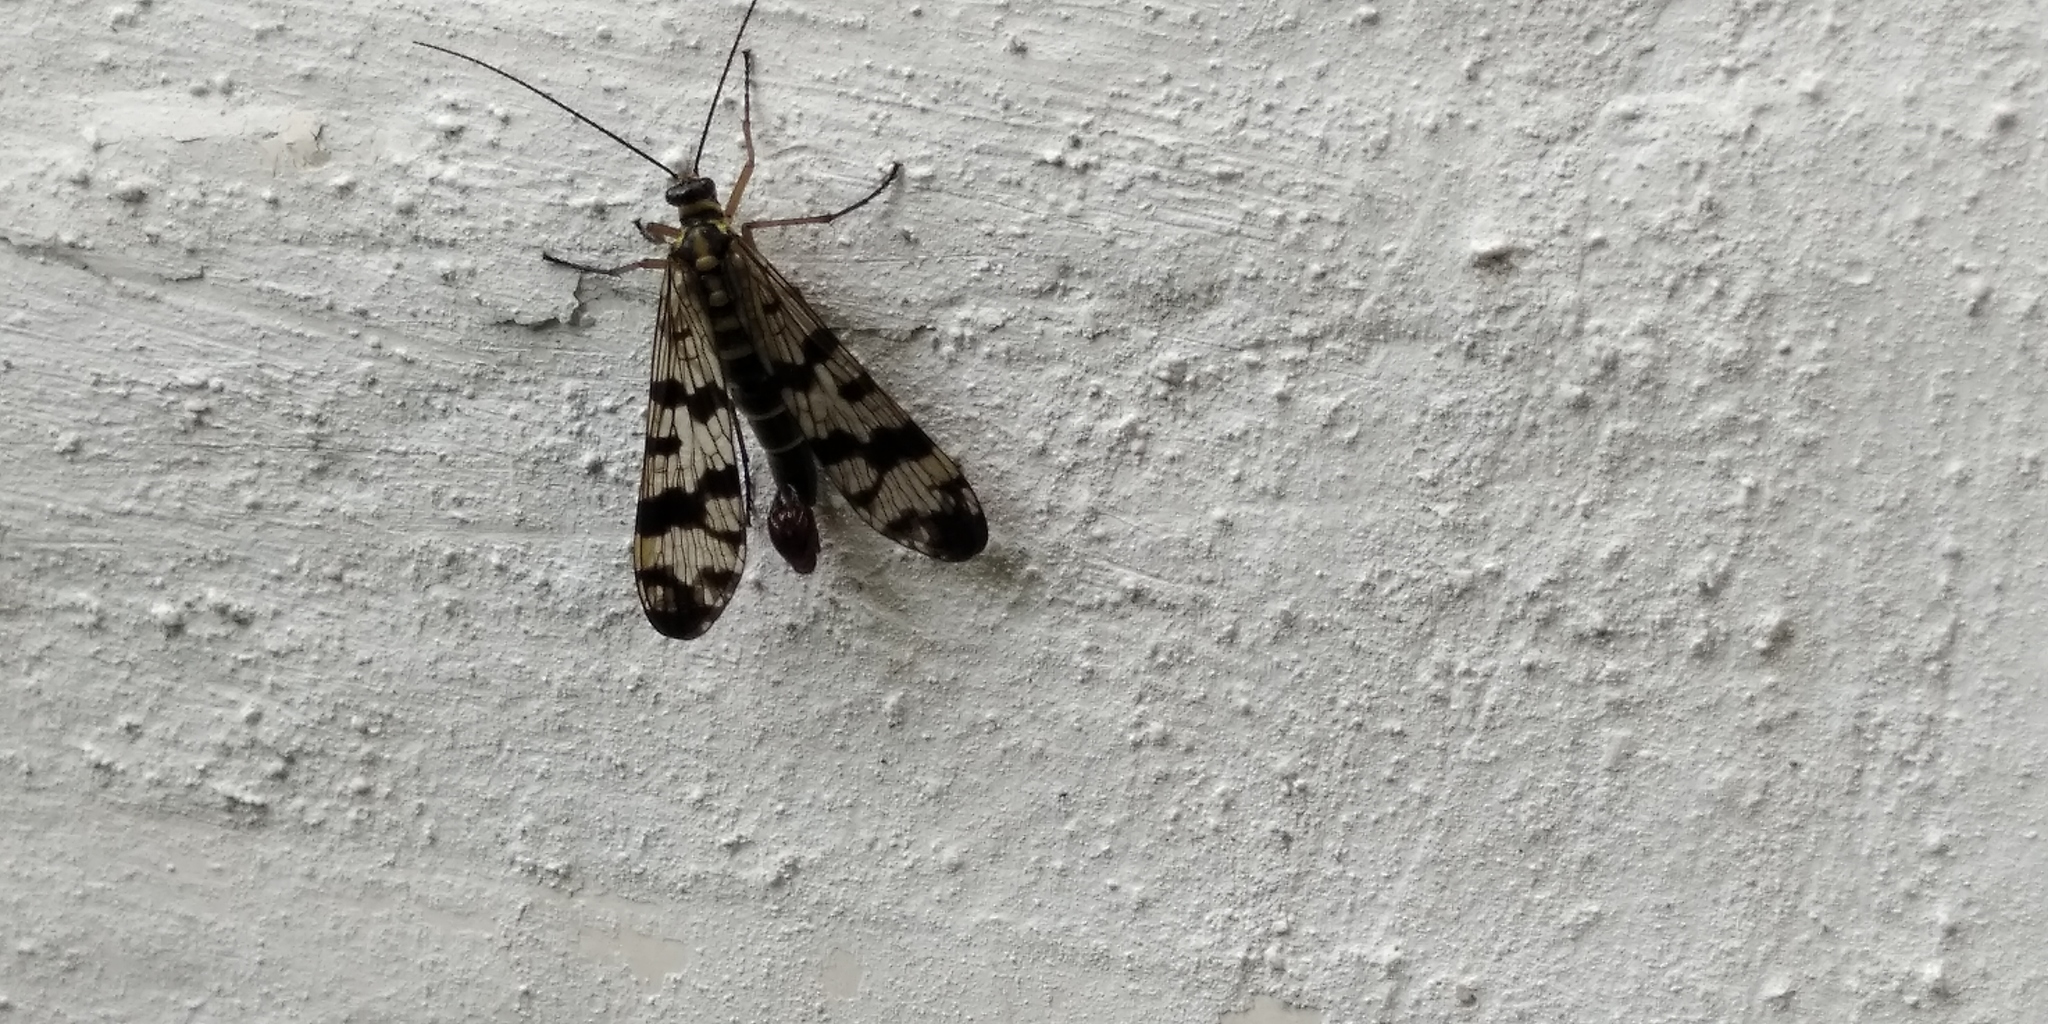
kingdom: Animalia
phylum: Arthropoda
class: Insecta
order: Mecoptera
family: Panorpidae
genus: Panorpa
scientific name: Panorpa communis
